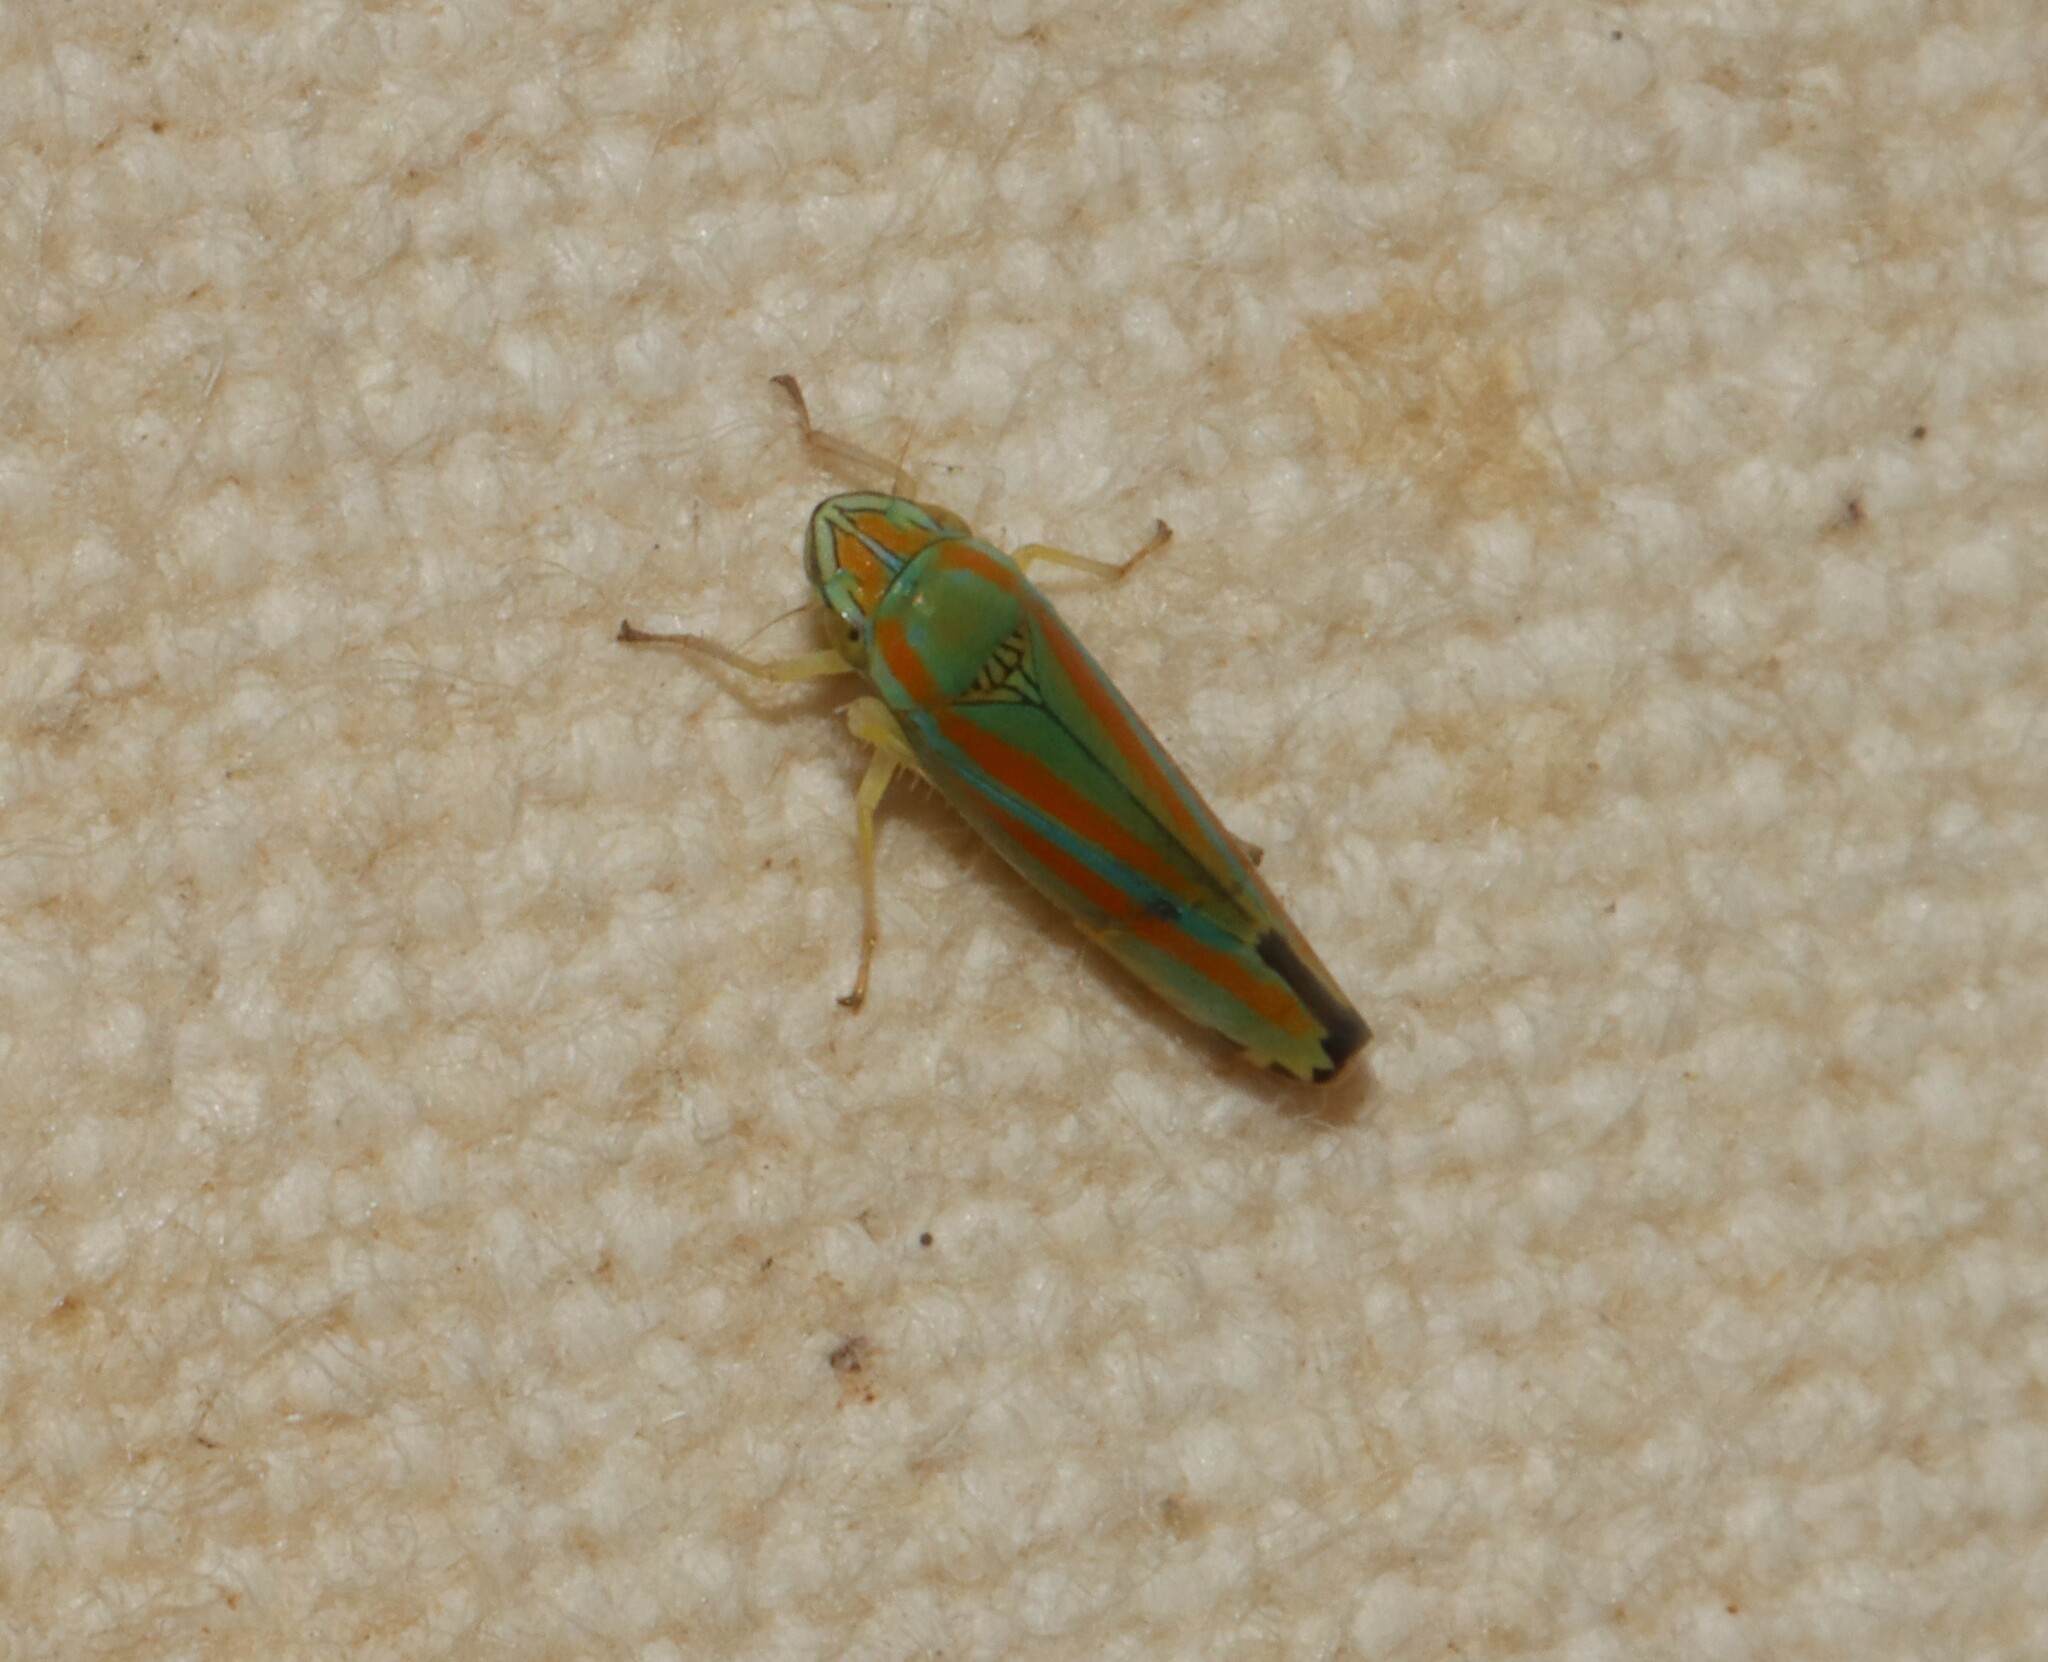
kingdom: Animalia
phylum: Arthropoda
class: Insecta
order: Hemiptera
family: Cicadellidae
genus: Graphocephala
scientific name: Graphocephala versuta
